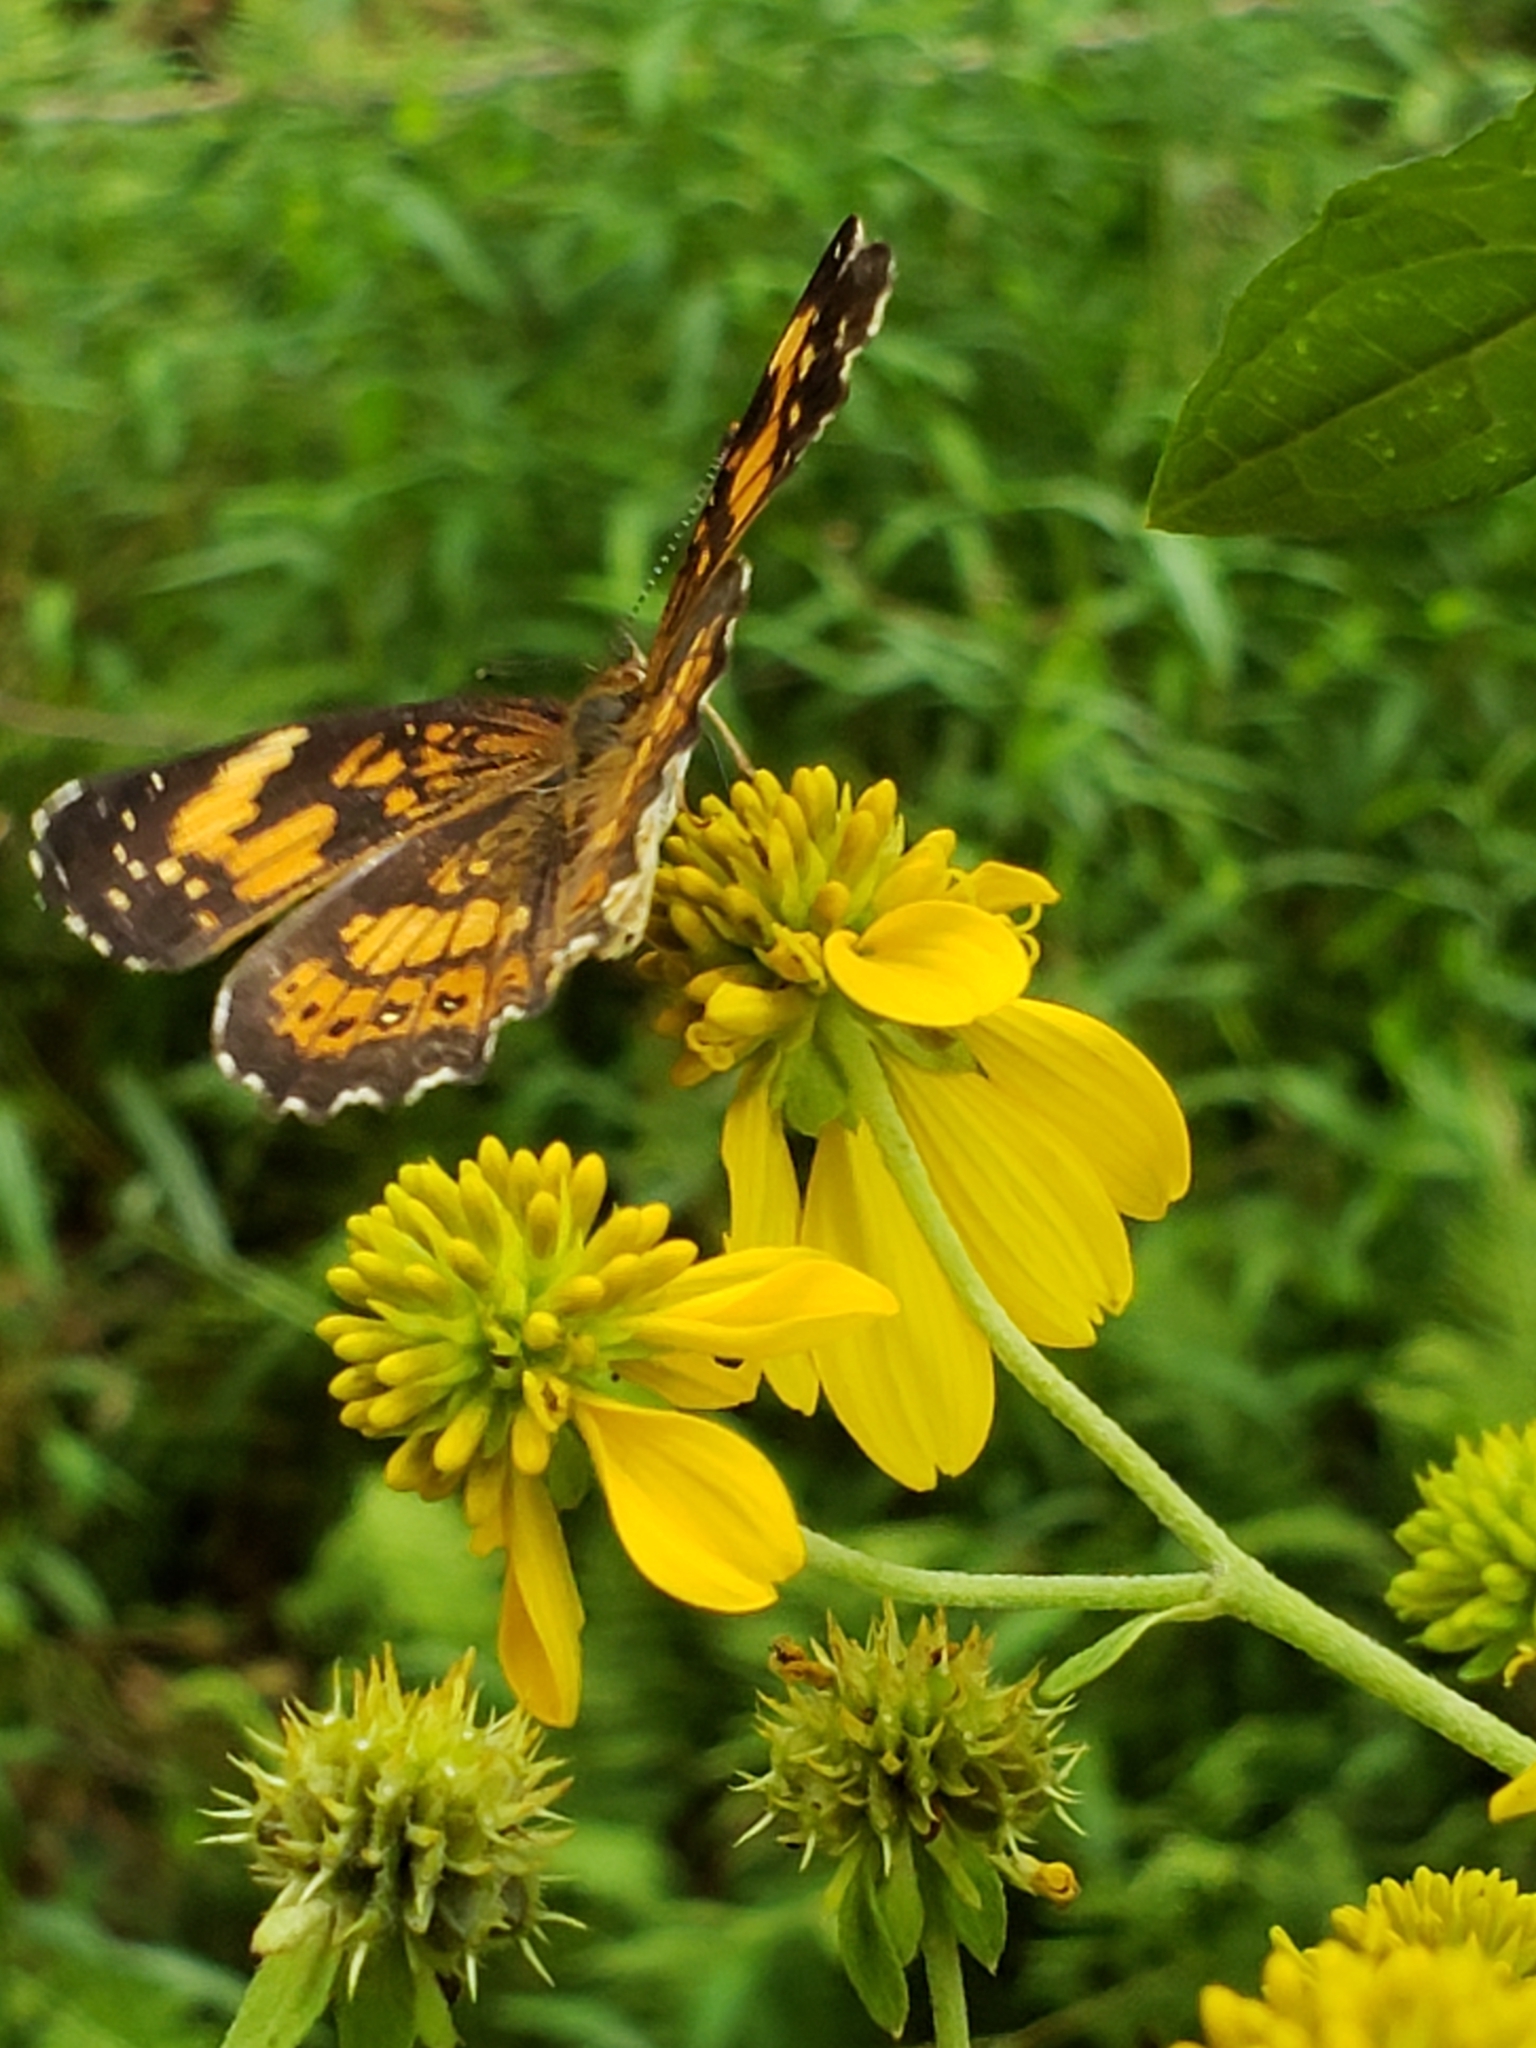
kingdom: Animalia
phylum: Arthropoda
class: Insecta
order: Lepidoptera
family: Nymphalidae
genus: Chlosyne
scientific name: Chlosyne nycteis
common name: Silvery checkerspot
